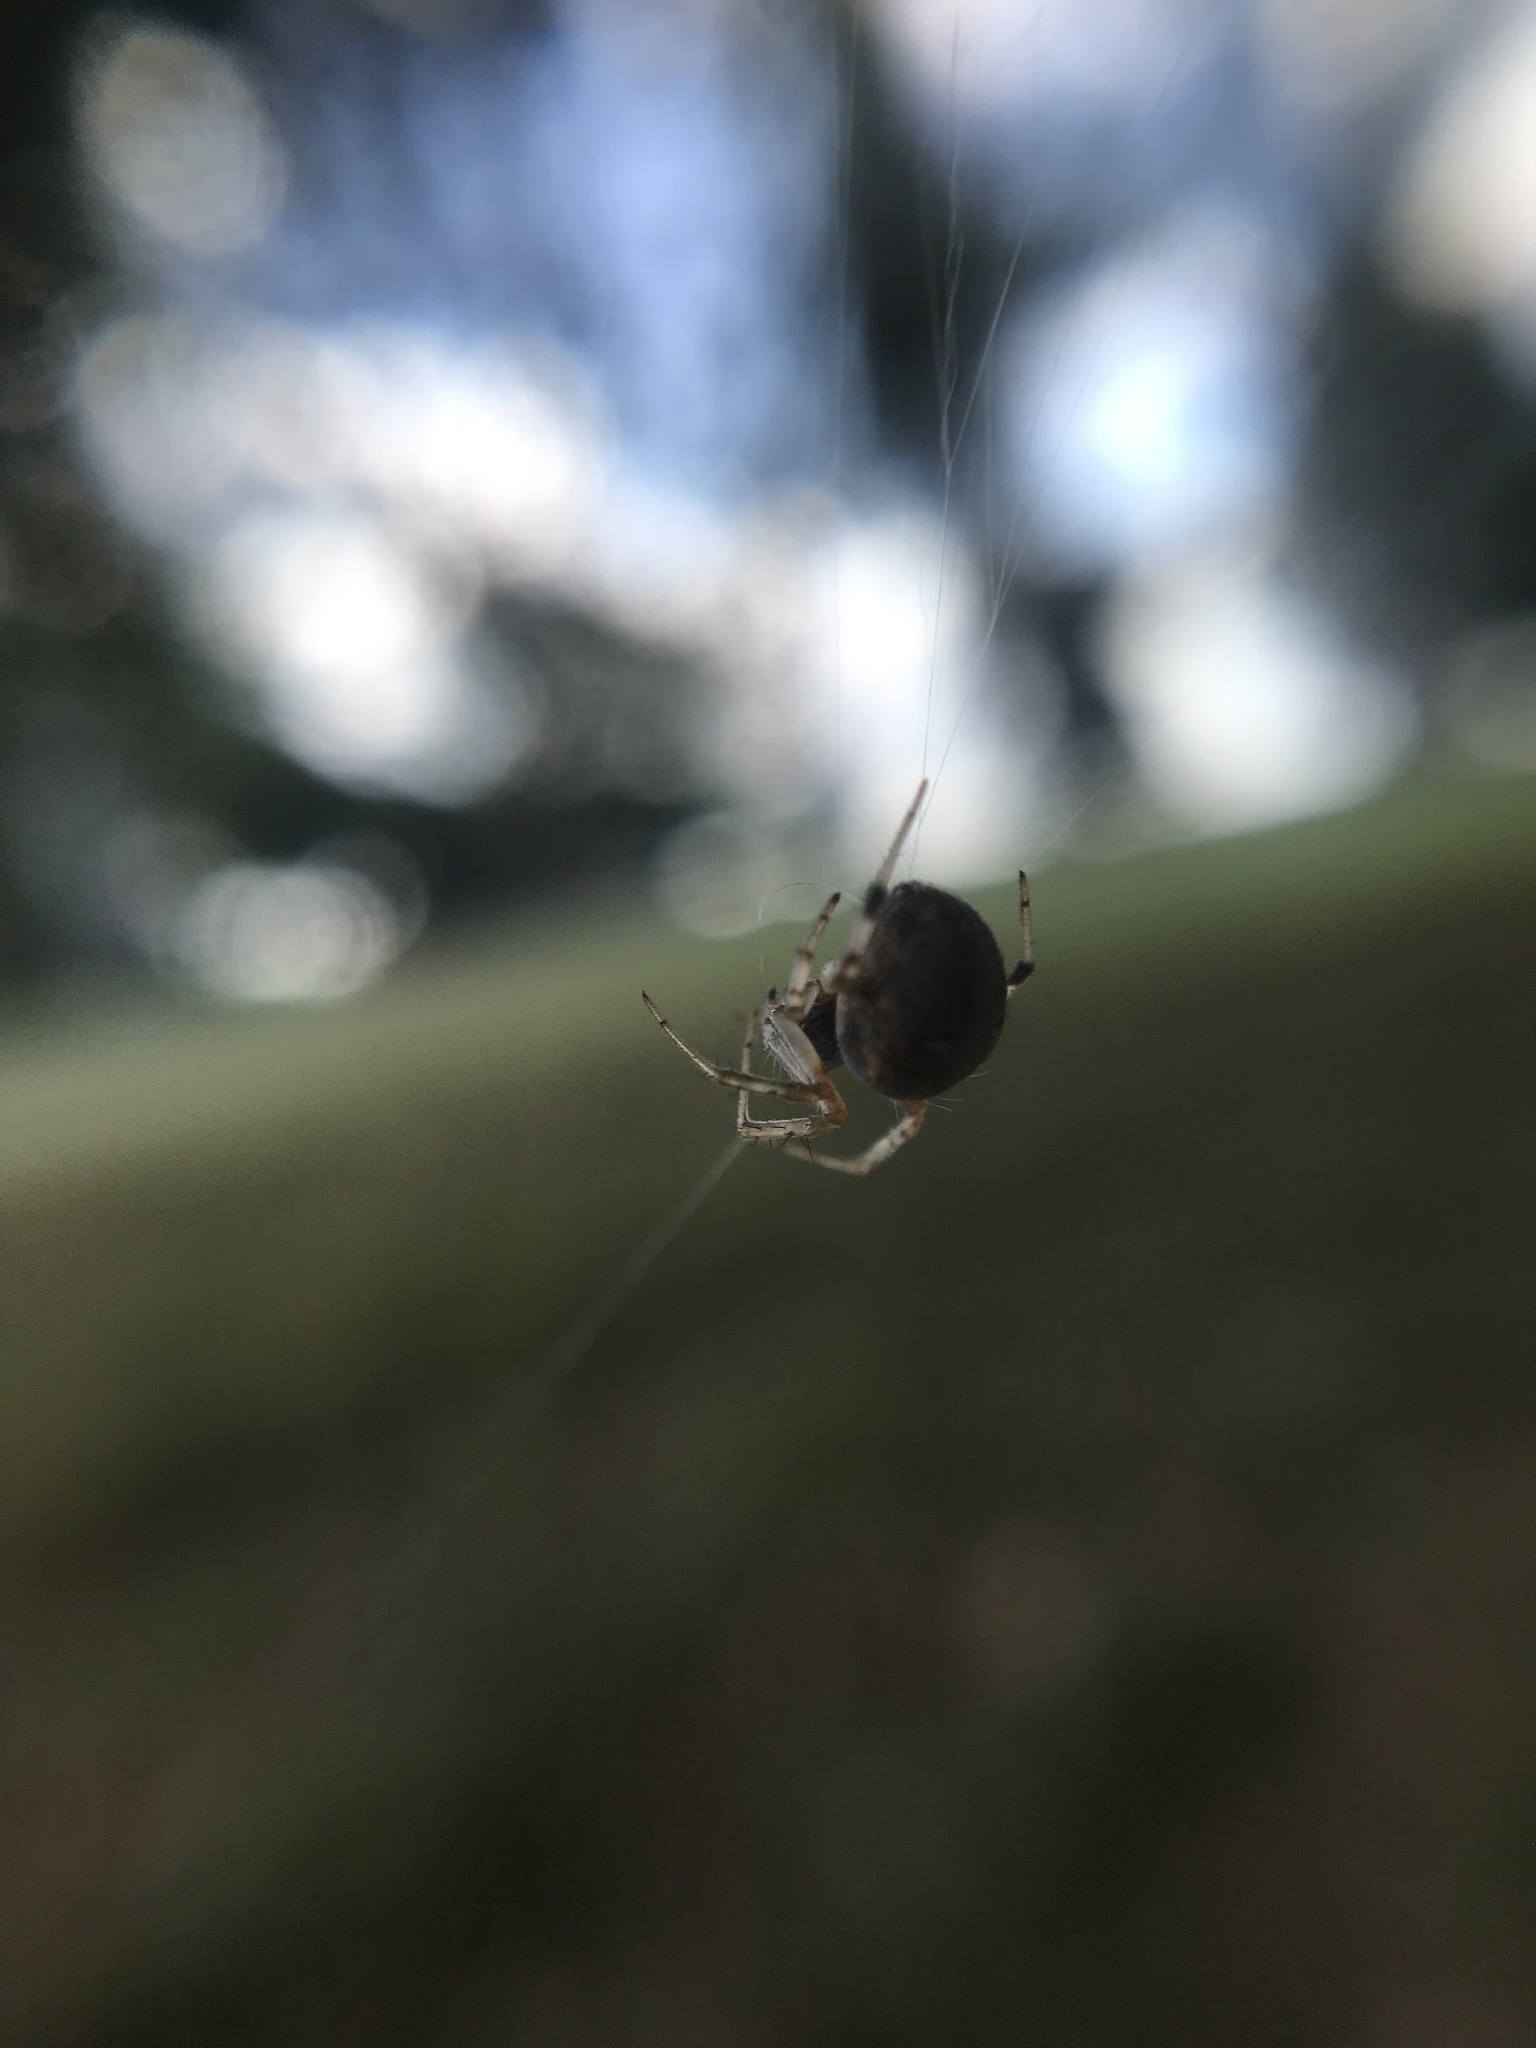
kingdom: Animalia
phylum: Arthropoda
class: Arachnida
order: Araneae
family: Araneidae
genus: Metepeira
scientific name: Metepeira
